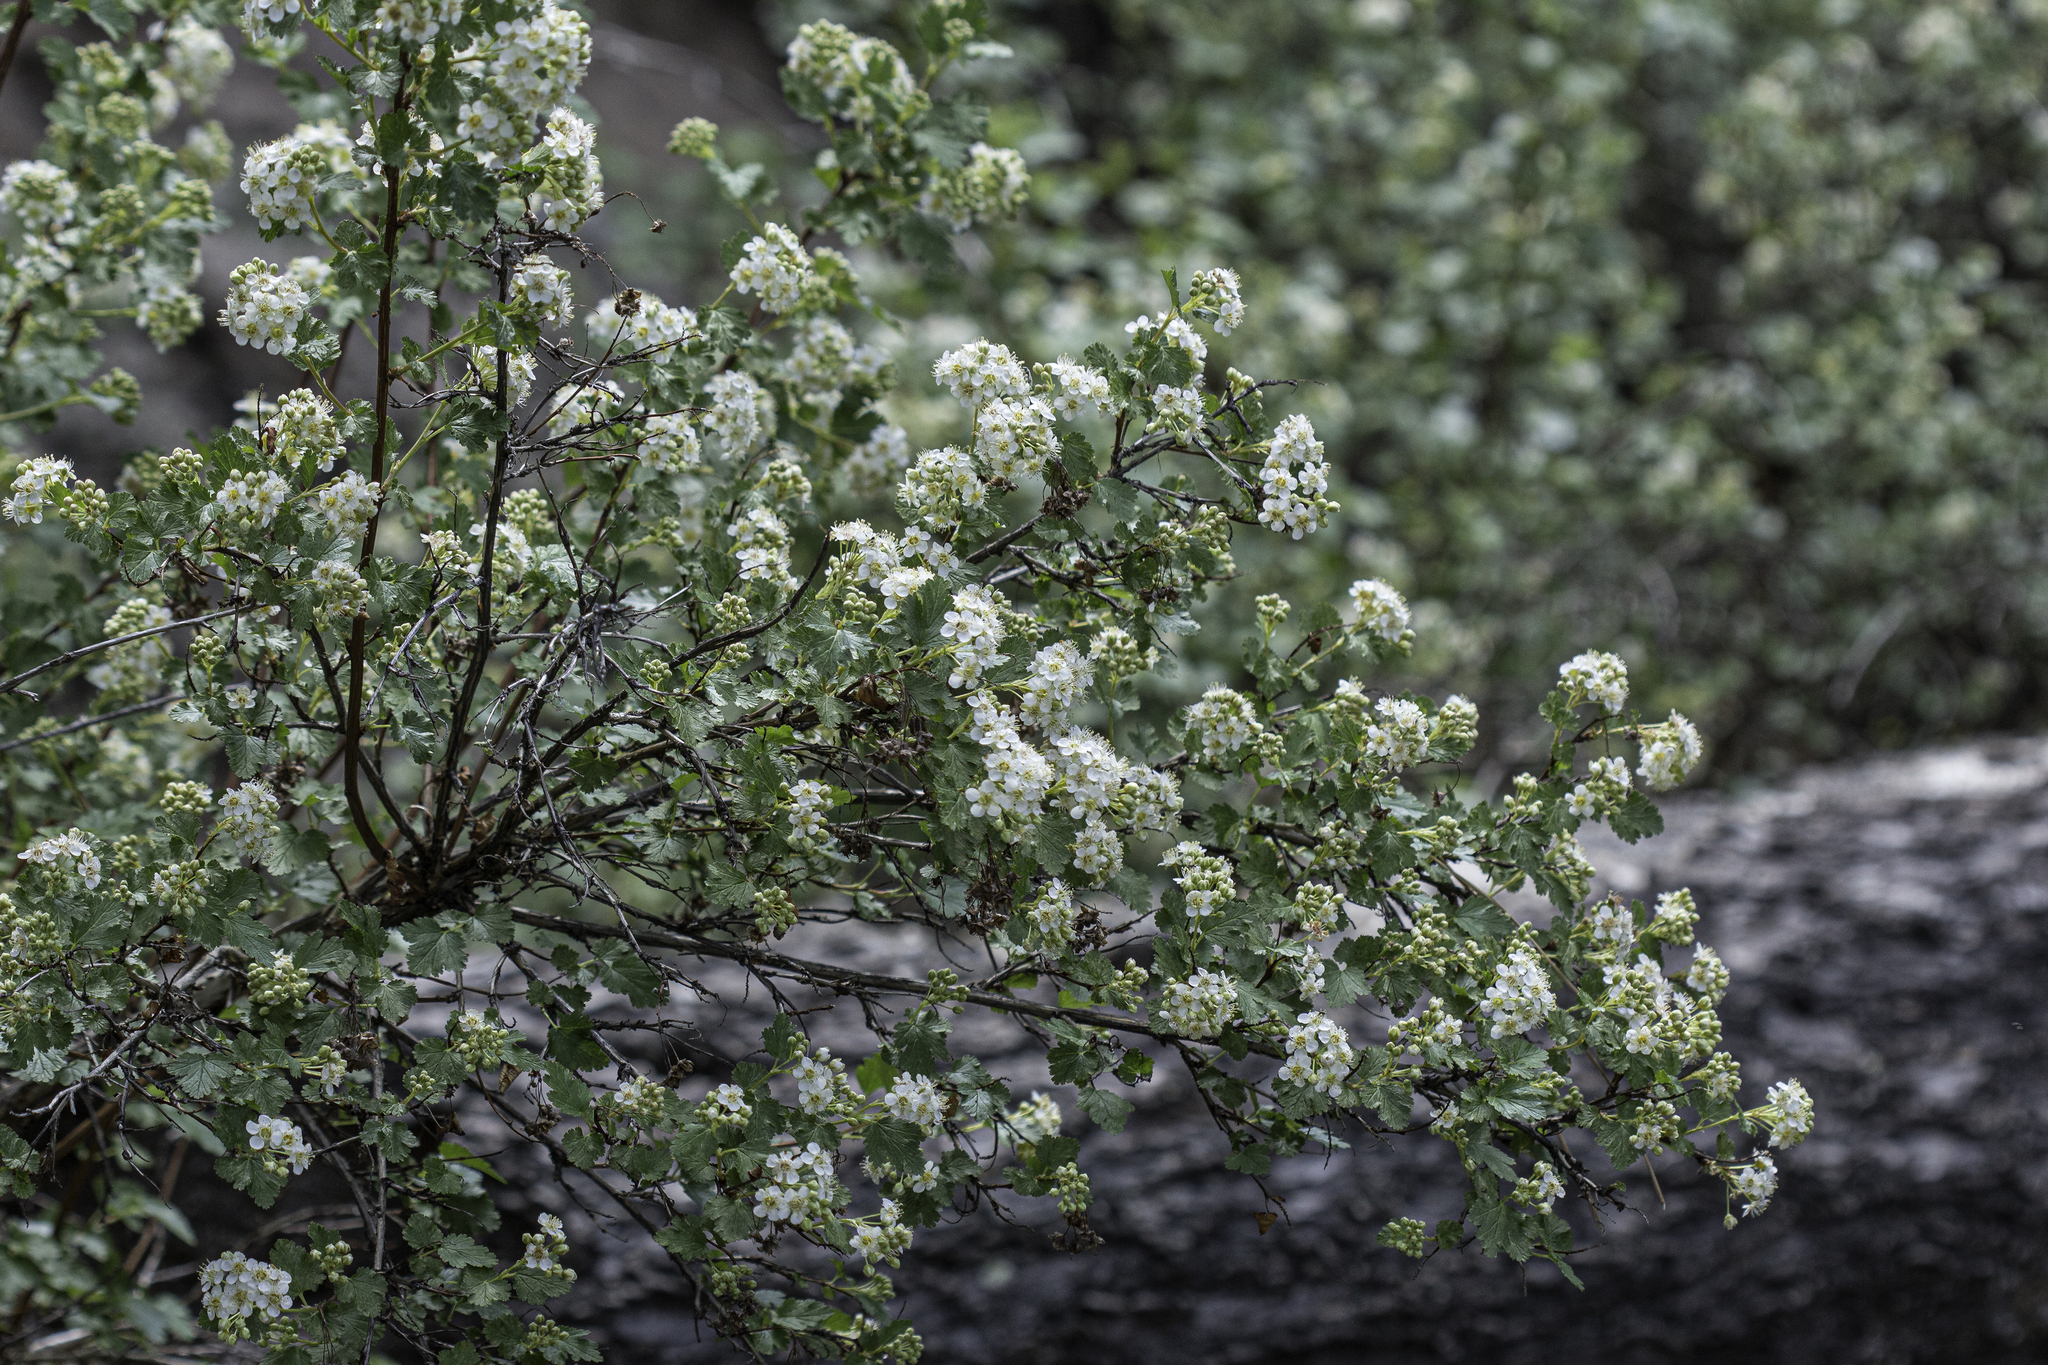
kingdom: Plantae
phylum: Tracheophyta
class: Magnoliopsida
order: Rosales
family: Rosaceae
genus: Physocarpus
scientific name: Physocarpus monogynus
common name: Mountain ninebark
